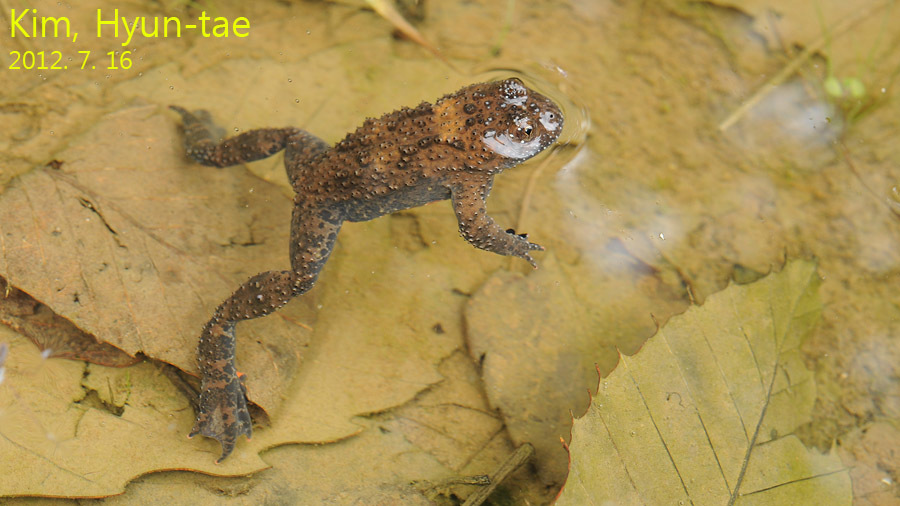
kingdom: Animalia
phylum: Chordata
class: Amphibia
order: Anura
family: Bombinatoridae
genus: Bombina
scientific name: Bombina orientalis
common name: Oriental firebelly toad
